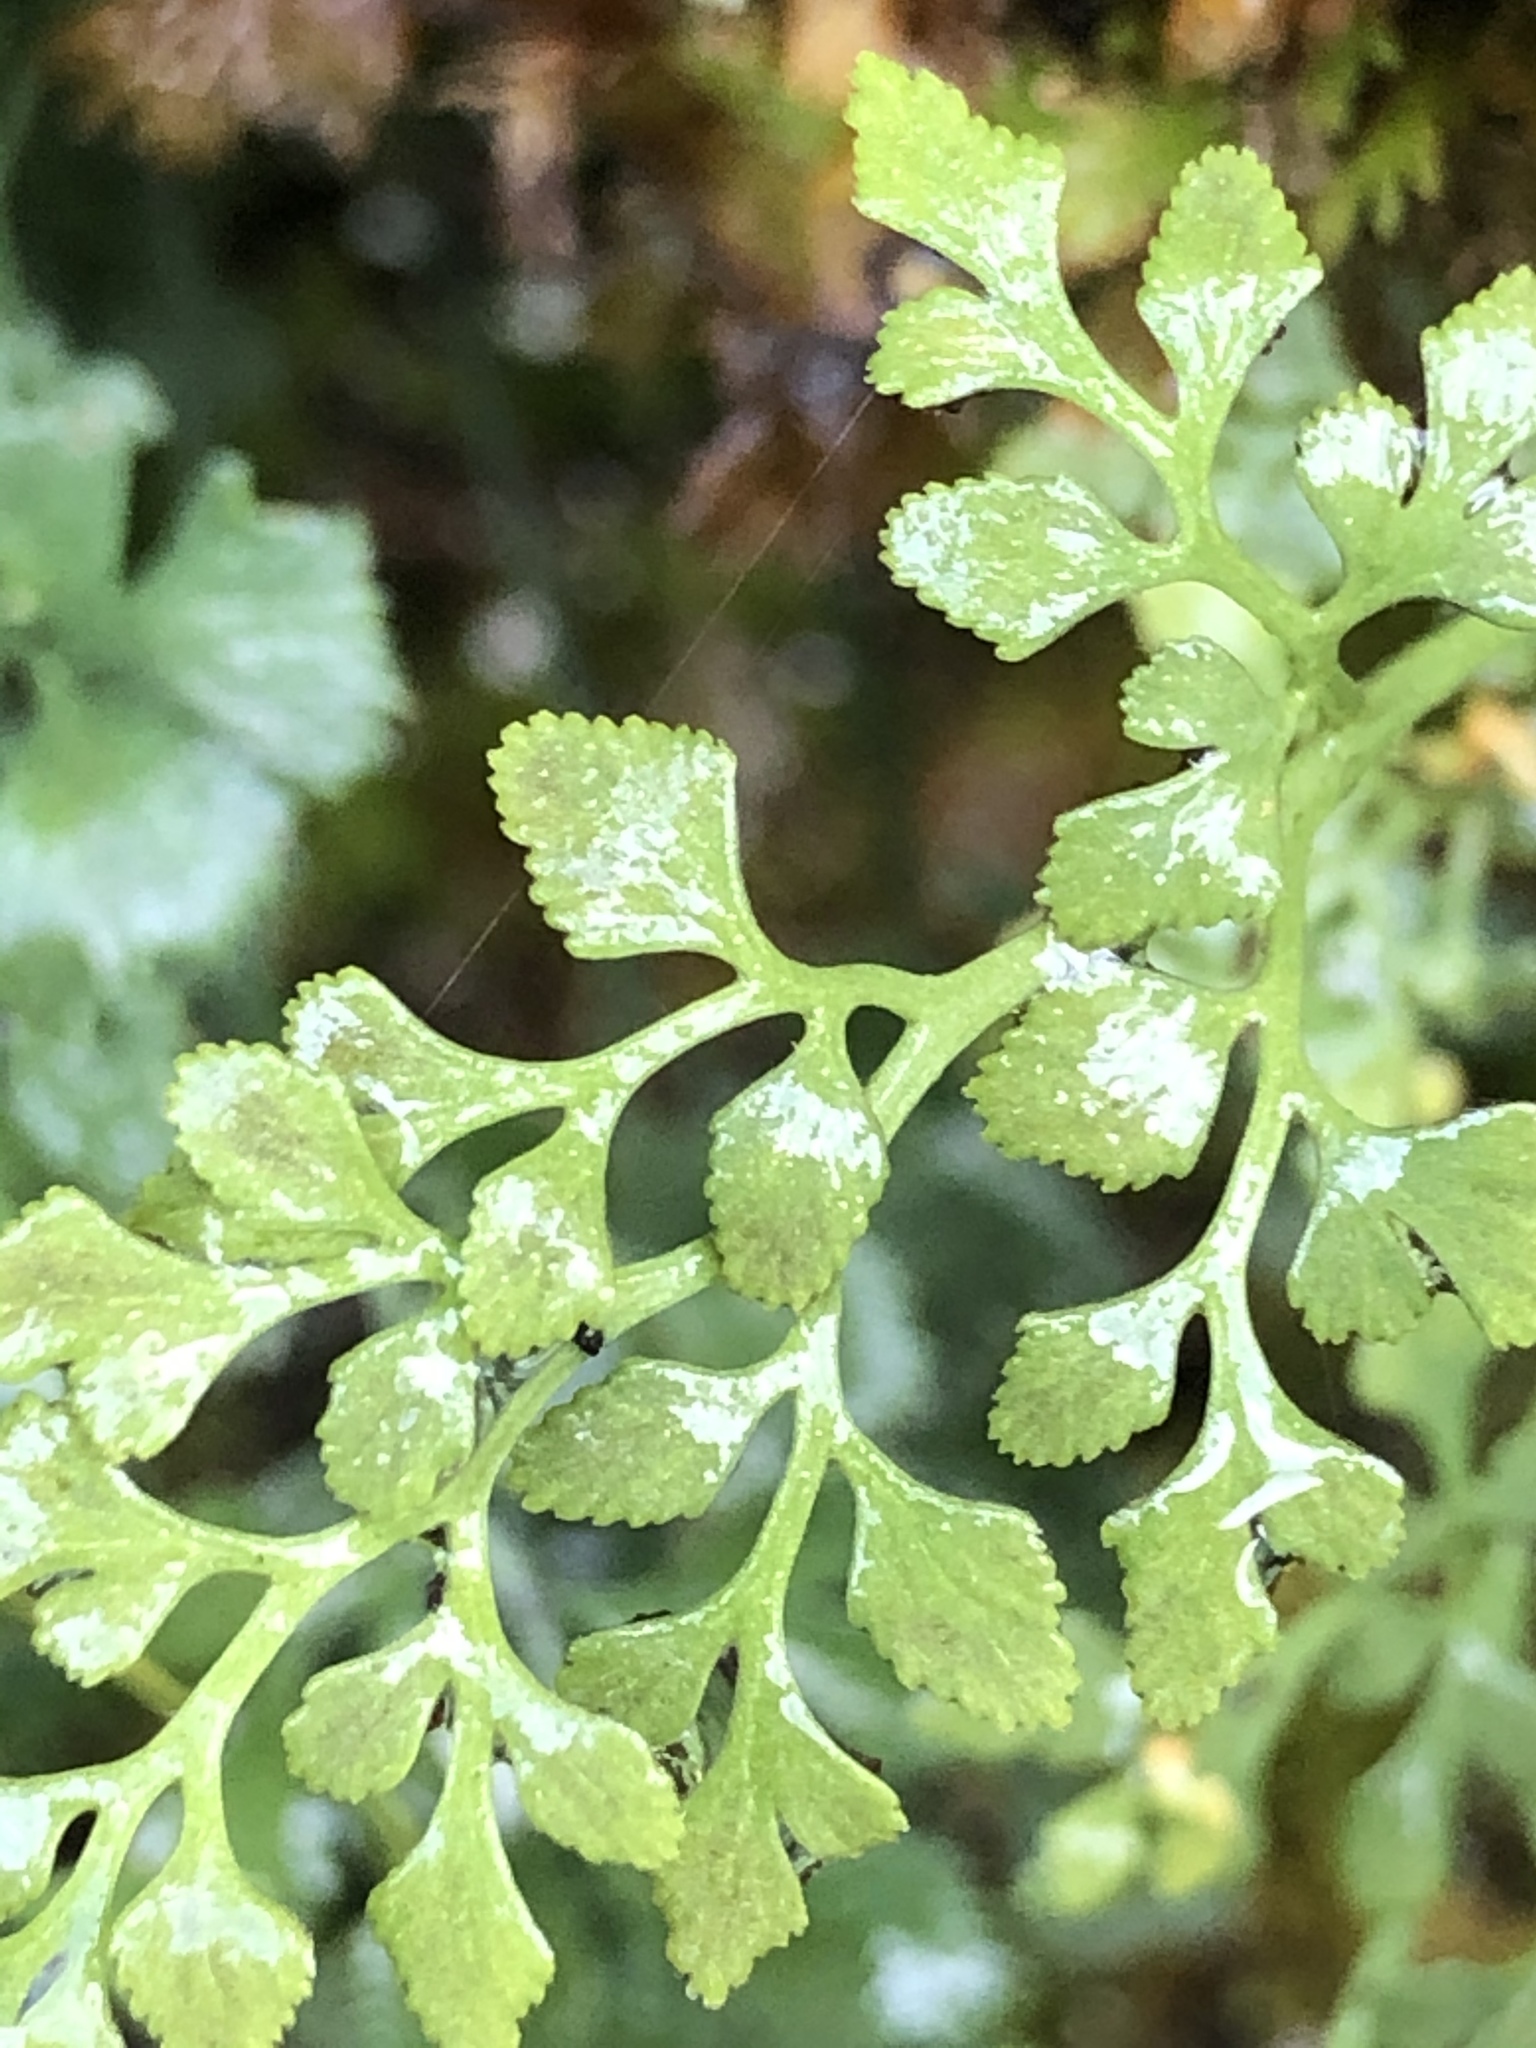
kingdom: Plantae
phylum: Tracheophyta
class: Polypodiopsida
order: Polypodiales
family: Aspleniaceae
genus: Asplenium
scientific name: Asplenium ruta-muraria
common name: Wall-rue
